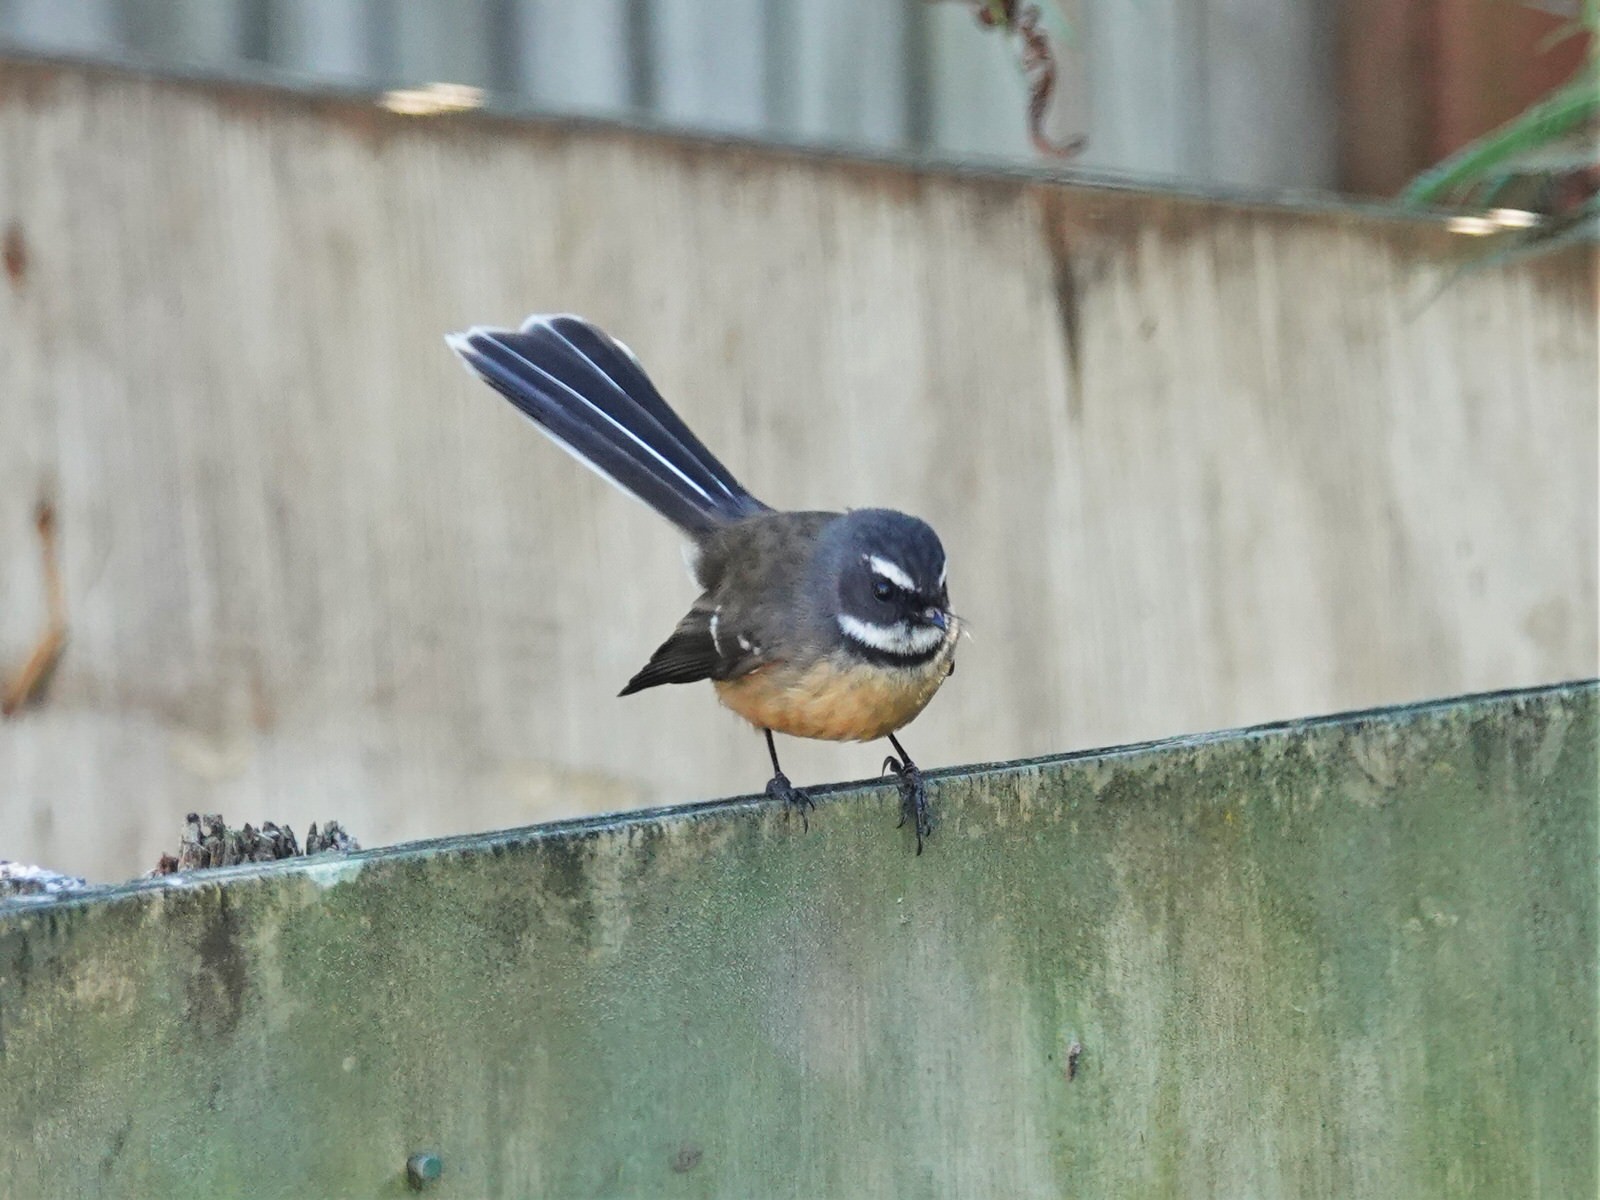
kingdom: Animalia
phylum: Chordata
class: Aves
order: Passeriformes
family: Rhipiduridae
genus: Rhipidura
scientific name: Rhipidura fuliginosa
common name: New zealand fantail
